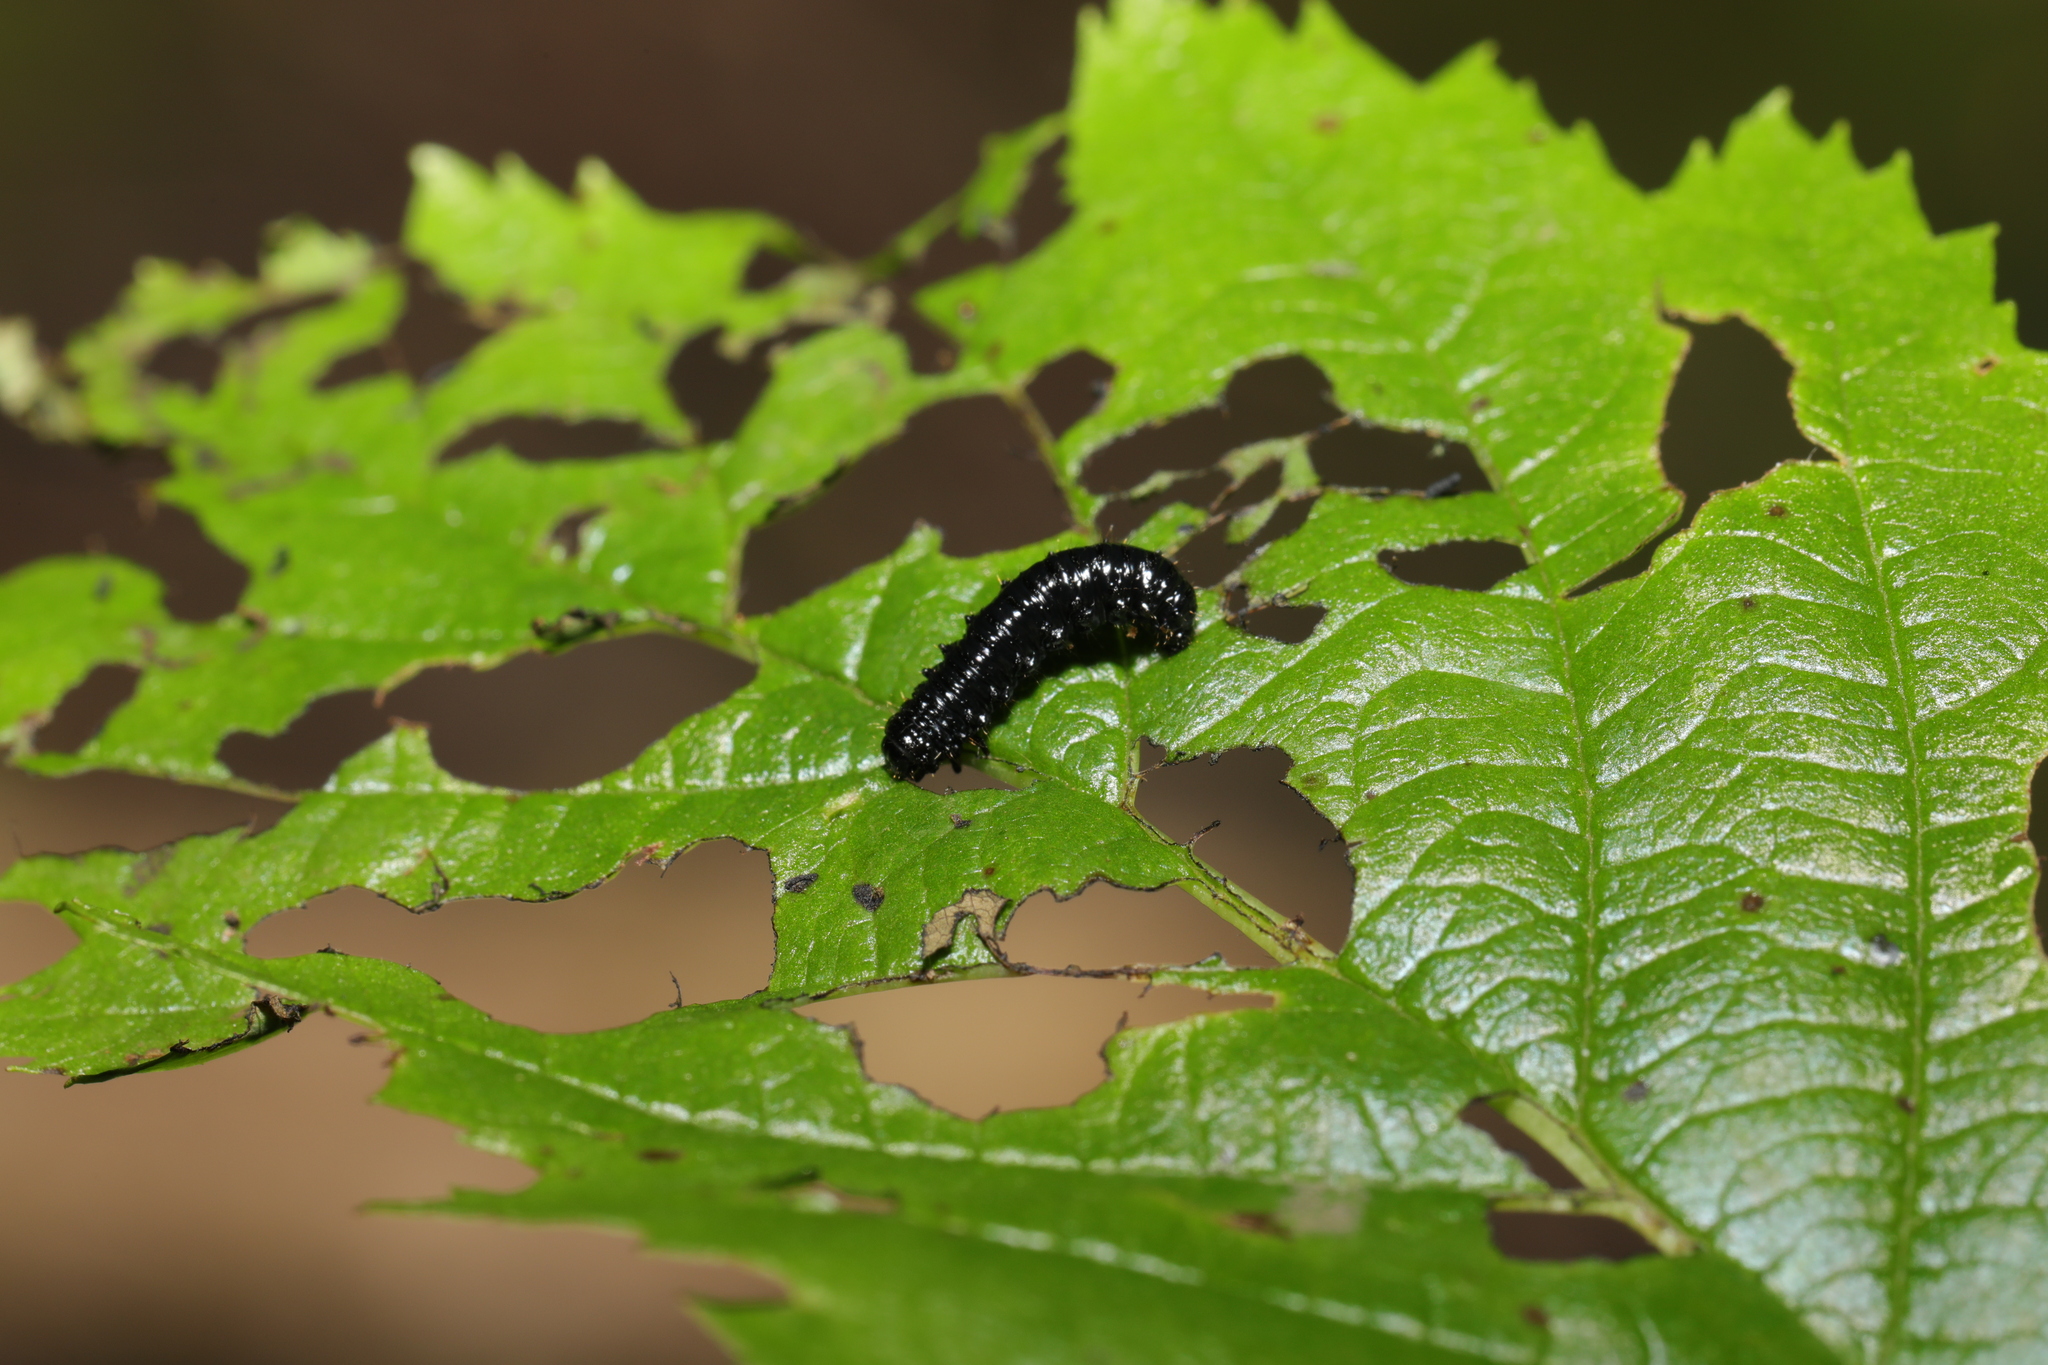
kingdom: Animalia
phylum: Arthropoda
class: Insecta
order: Coleoptera
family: Chrysomelidae
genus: Agelastica
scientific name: Agelastica alni
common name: Alder leaf beetle
